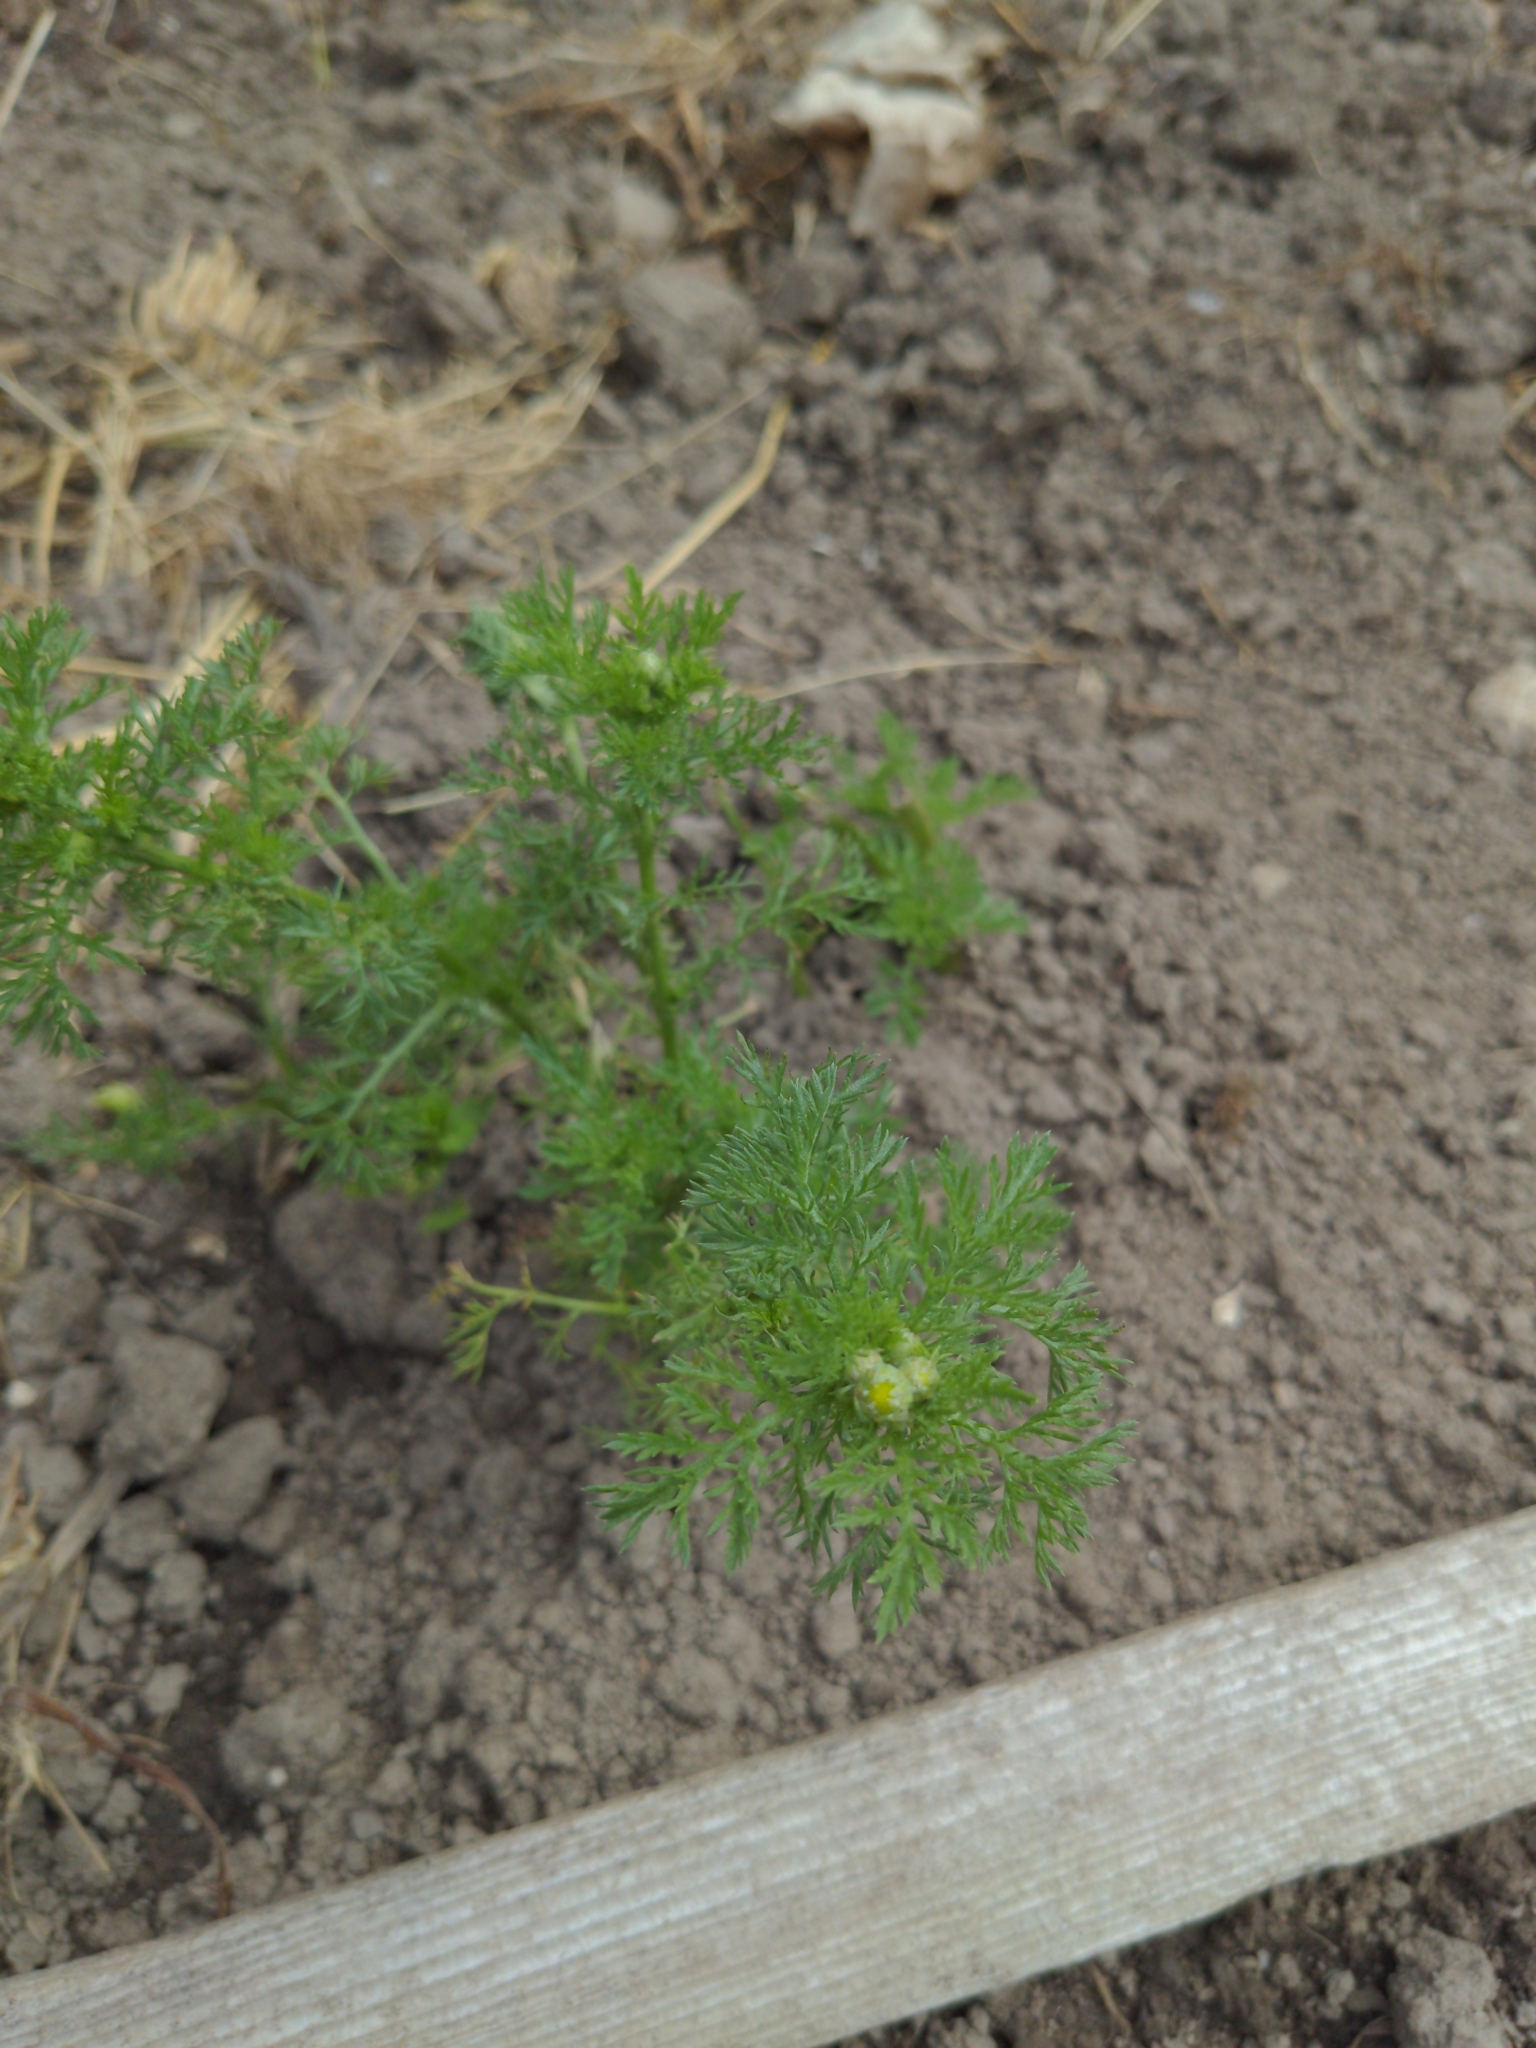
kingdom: Plantae
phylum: Tracheophyta
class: Magnoliopsida
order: Asterales
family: Asteraceae
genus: Matricaria
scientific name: Matricaria discoidea
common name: Disc mayweed
